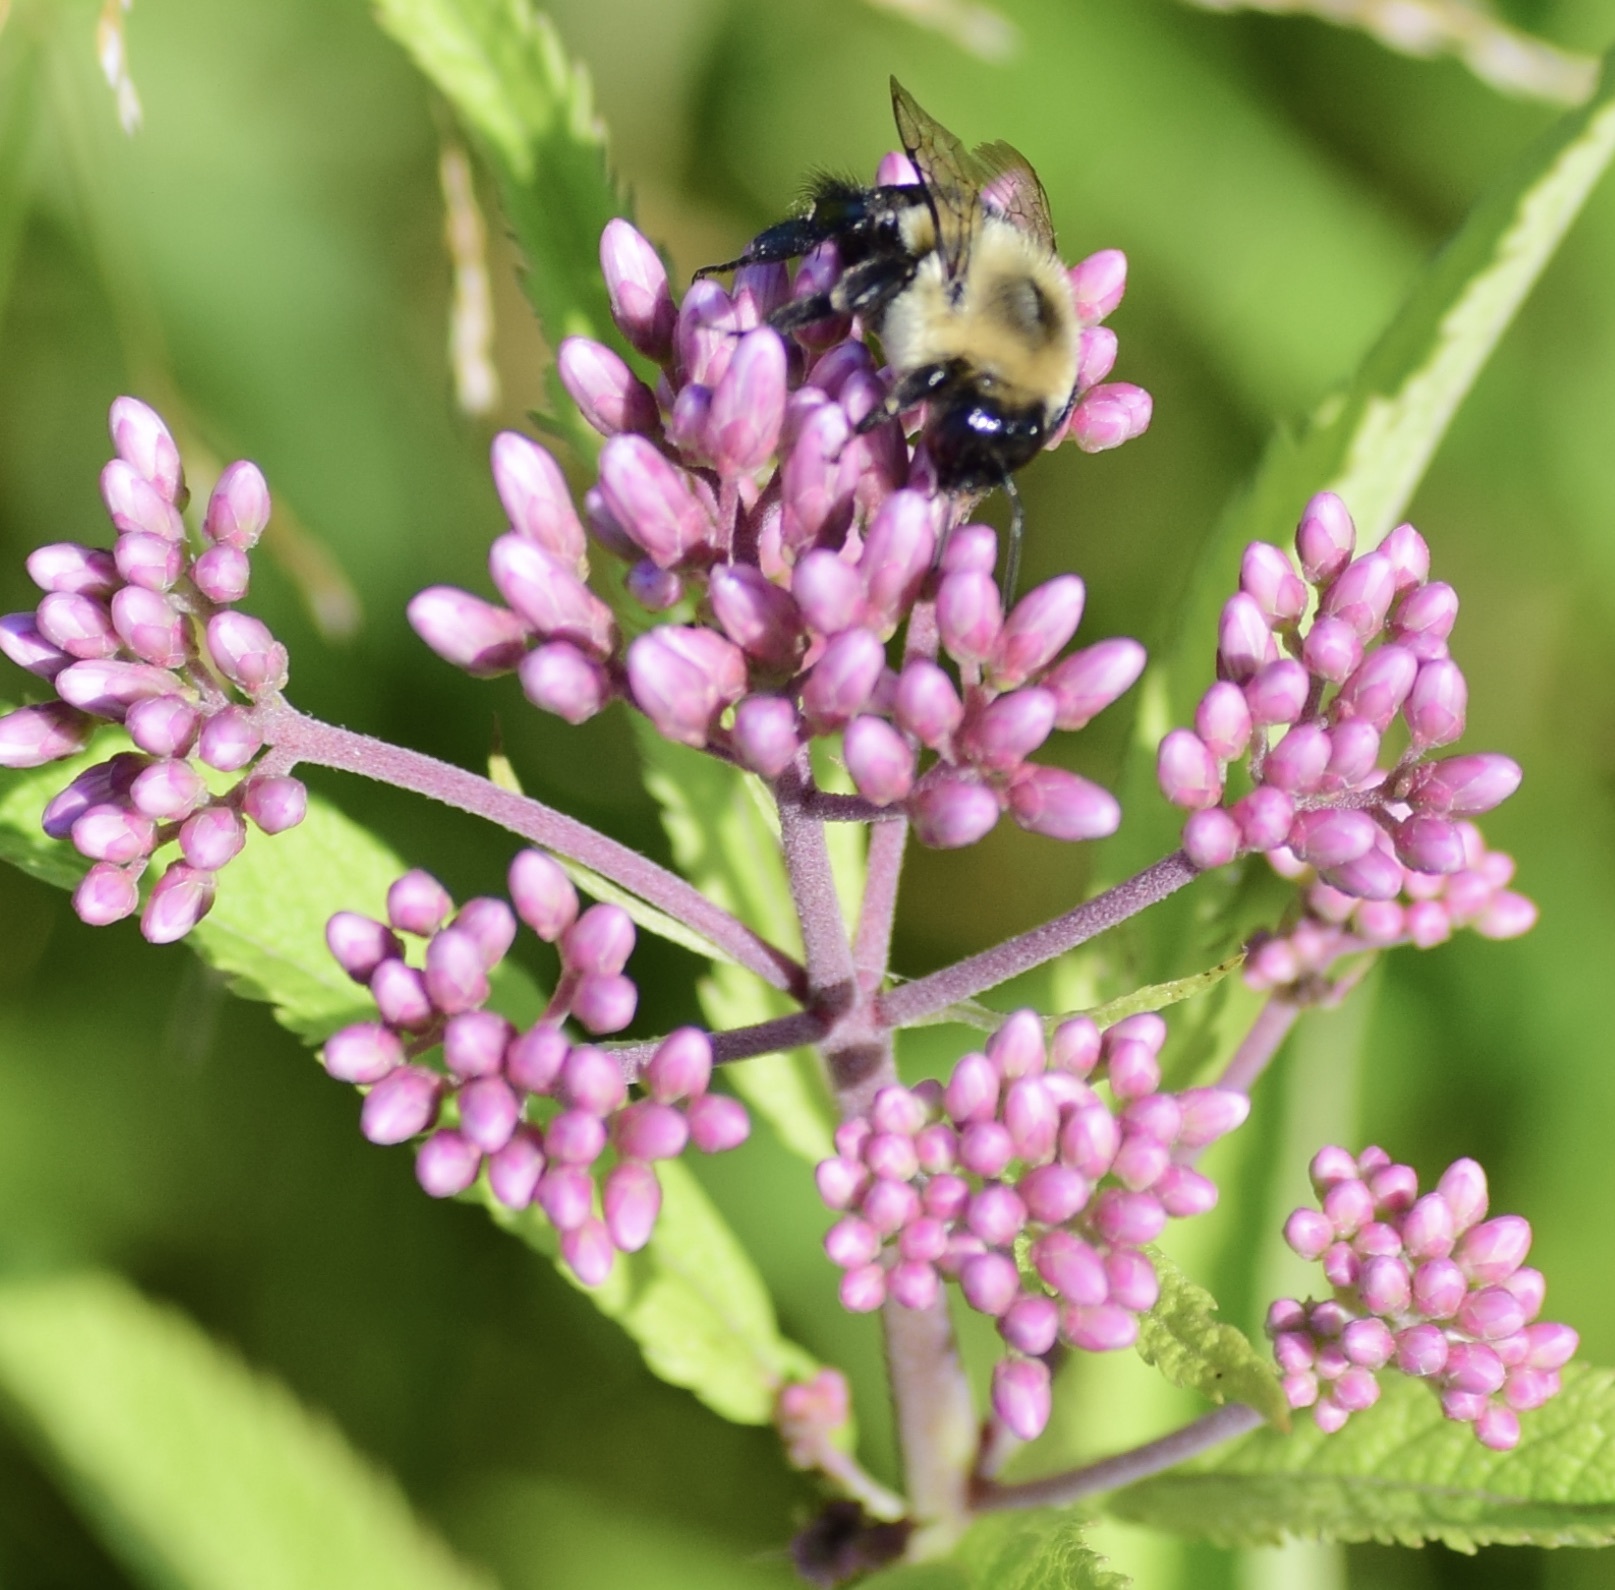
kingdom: Animalia
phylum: Arthropoda
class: Insecta
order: Hymenoptera
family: Apidae
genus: Bombus
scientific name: Bombus impatiens
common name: Common eastern bumble bee
